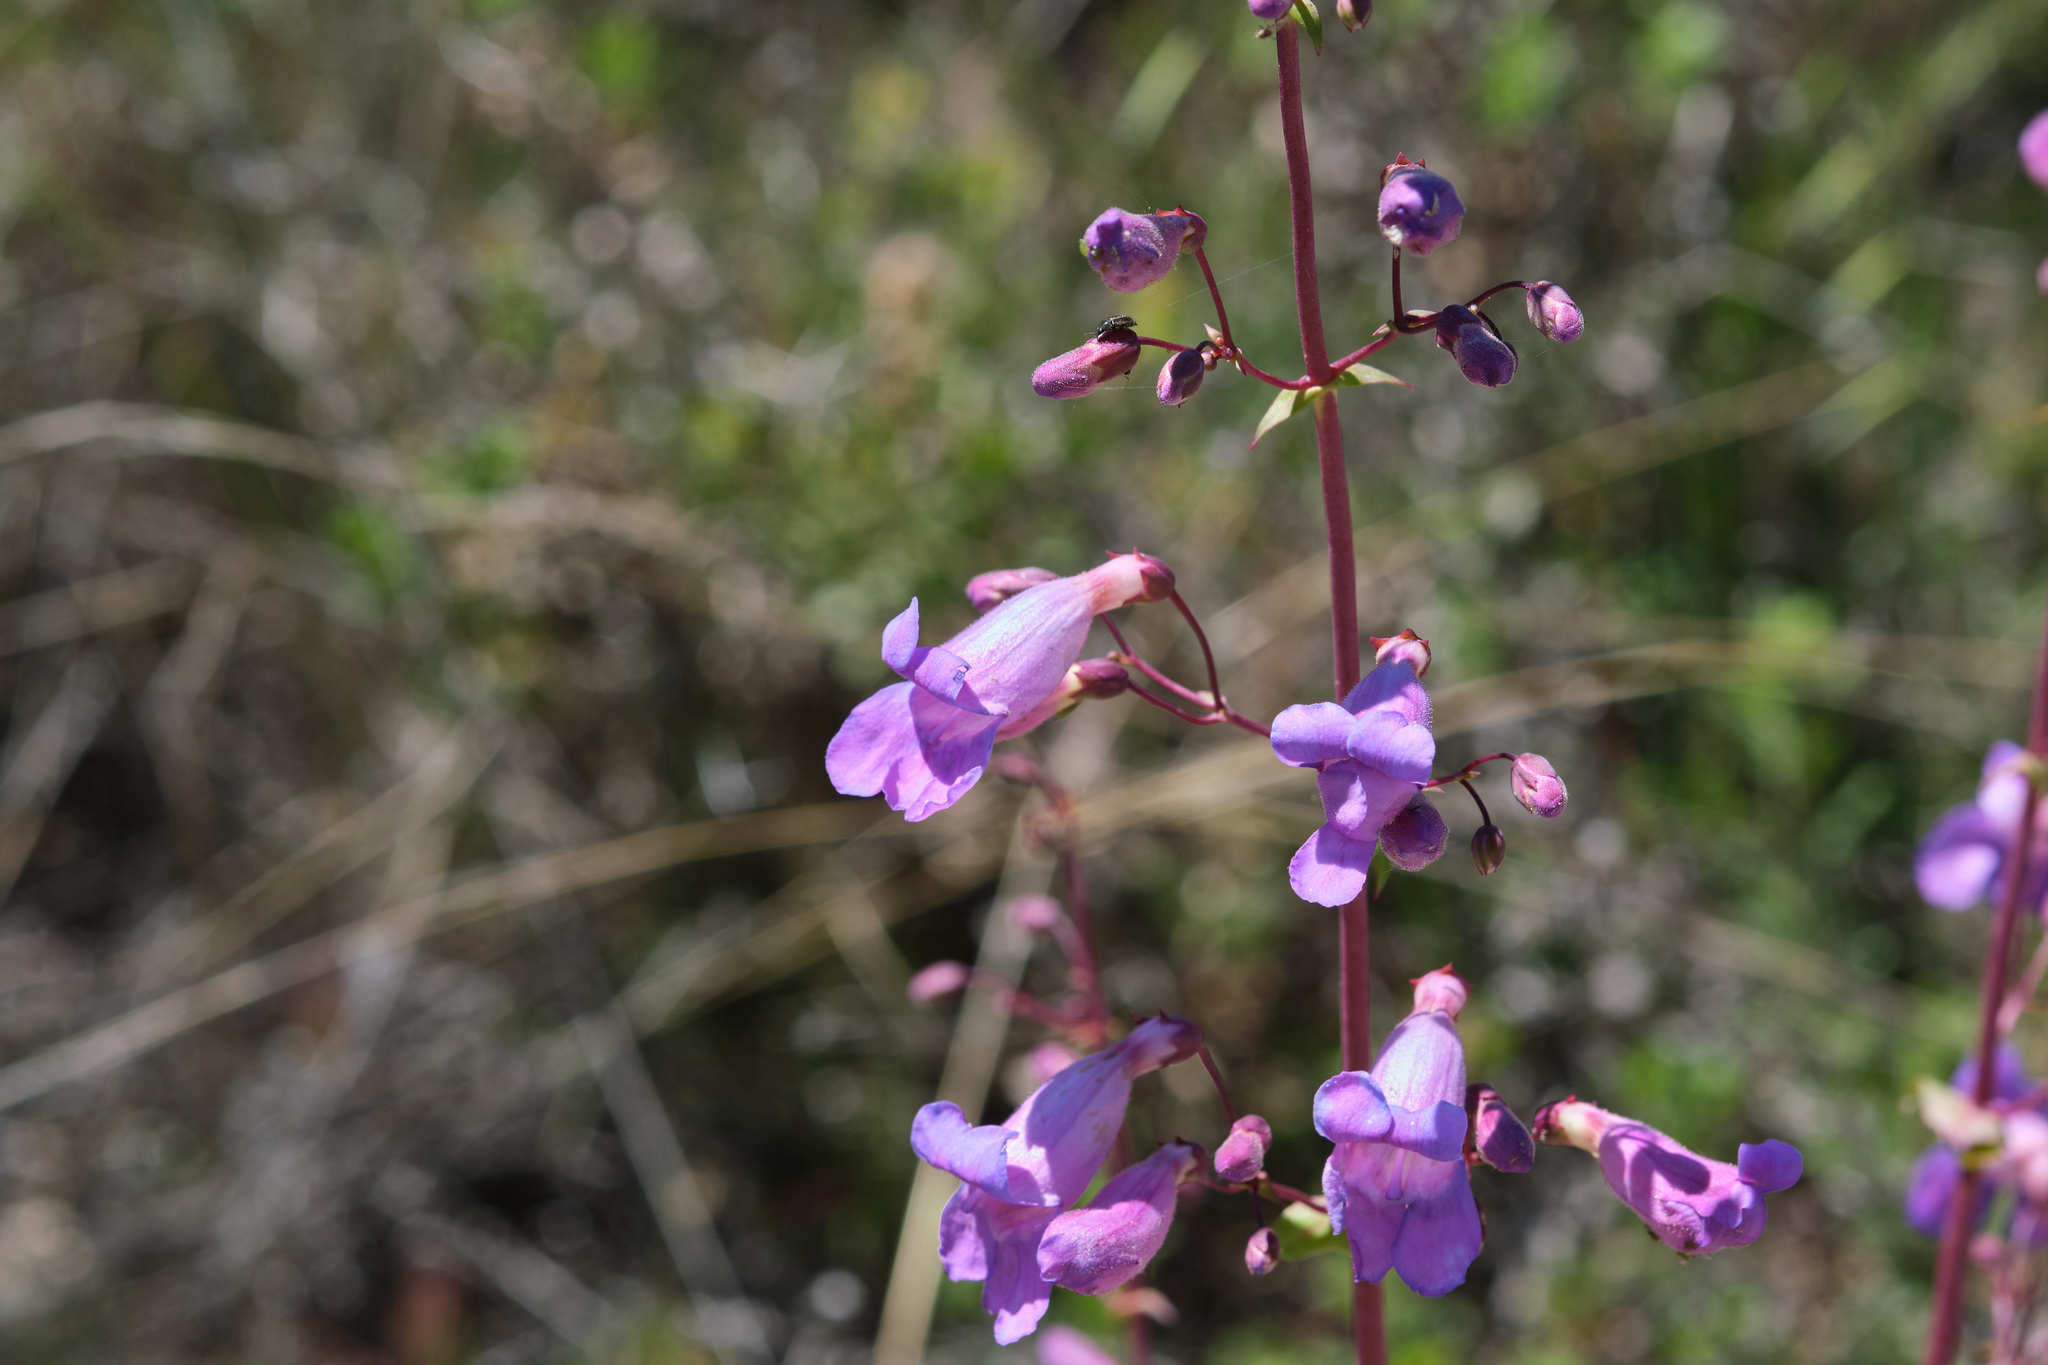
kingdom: Plantae
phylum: Tracheophyta
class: Magnoliopsida
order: Lamiales
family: Plantaginaceae
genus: Penstemon
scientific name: Penstemon spectabilis
